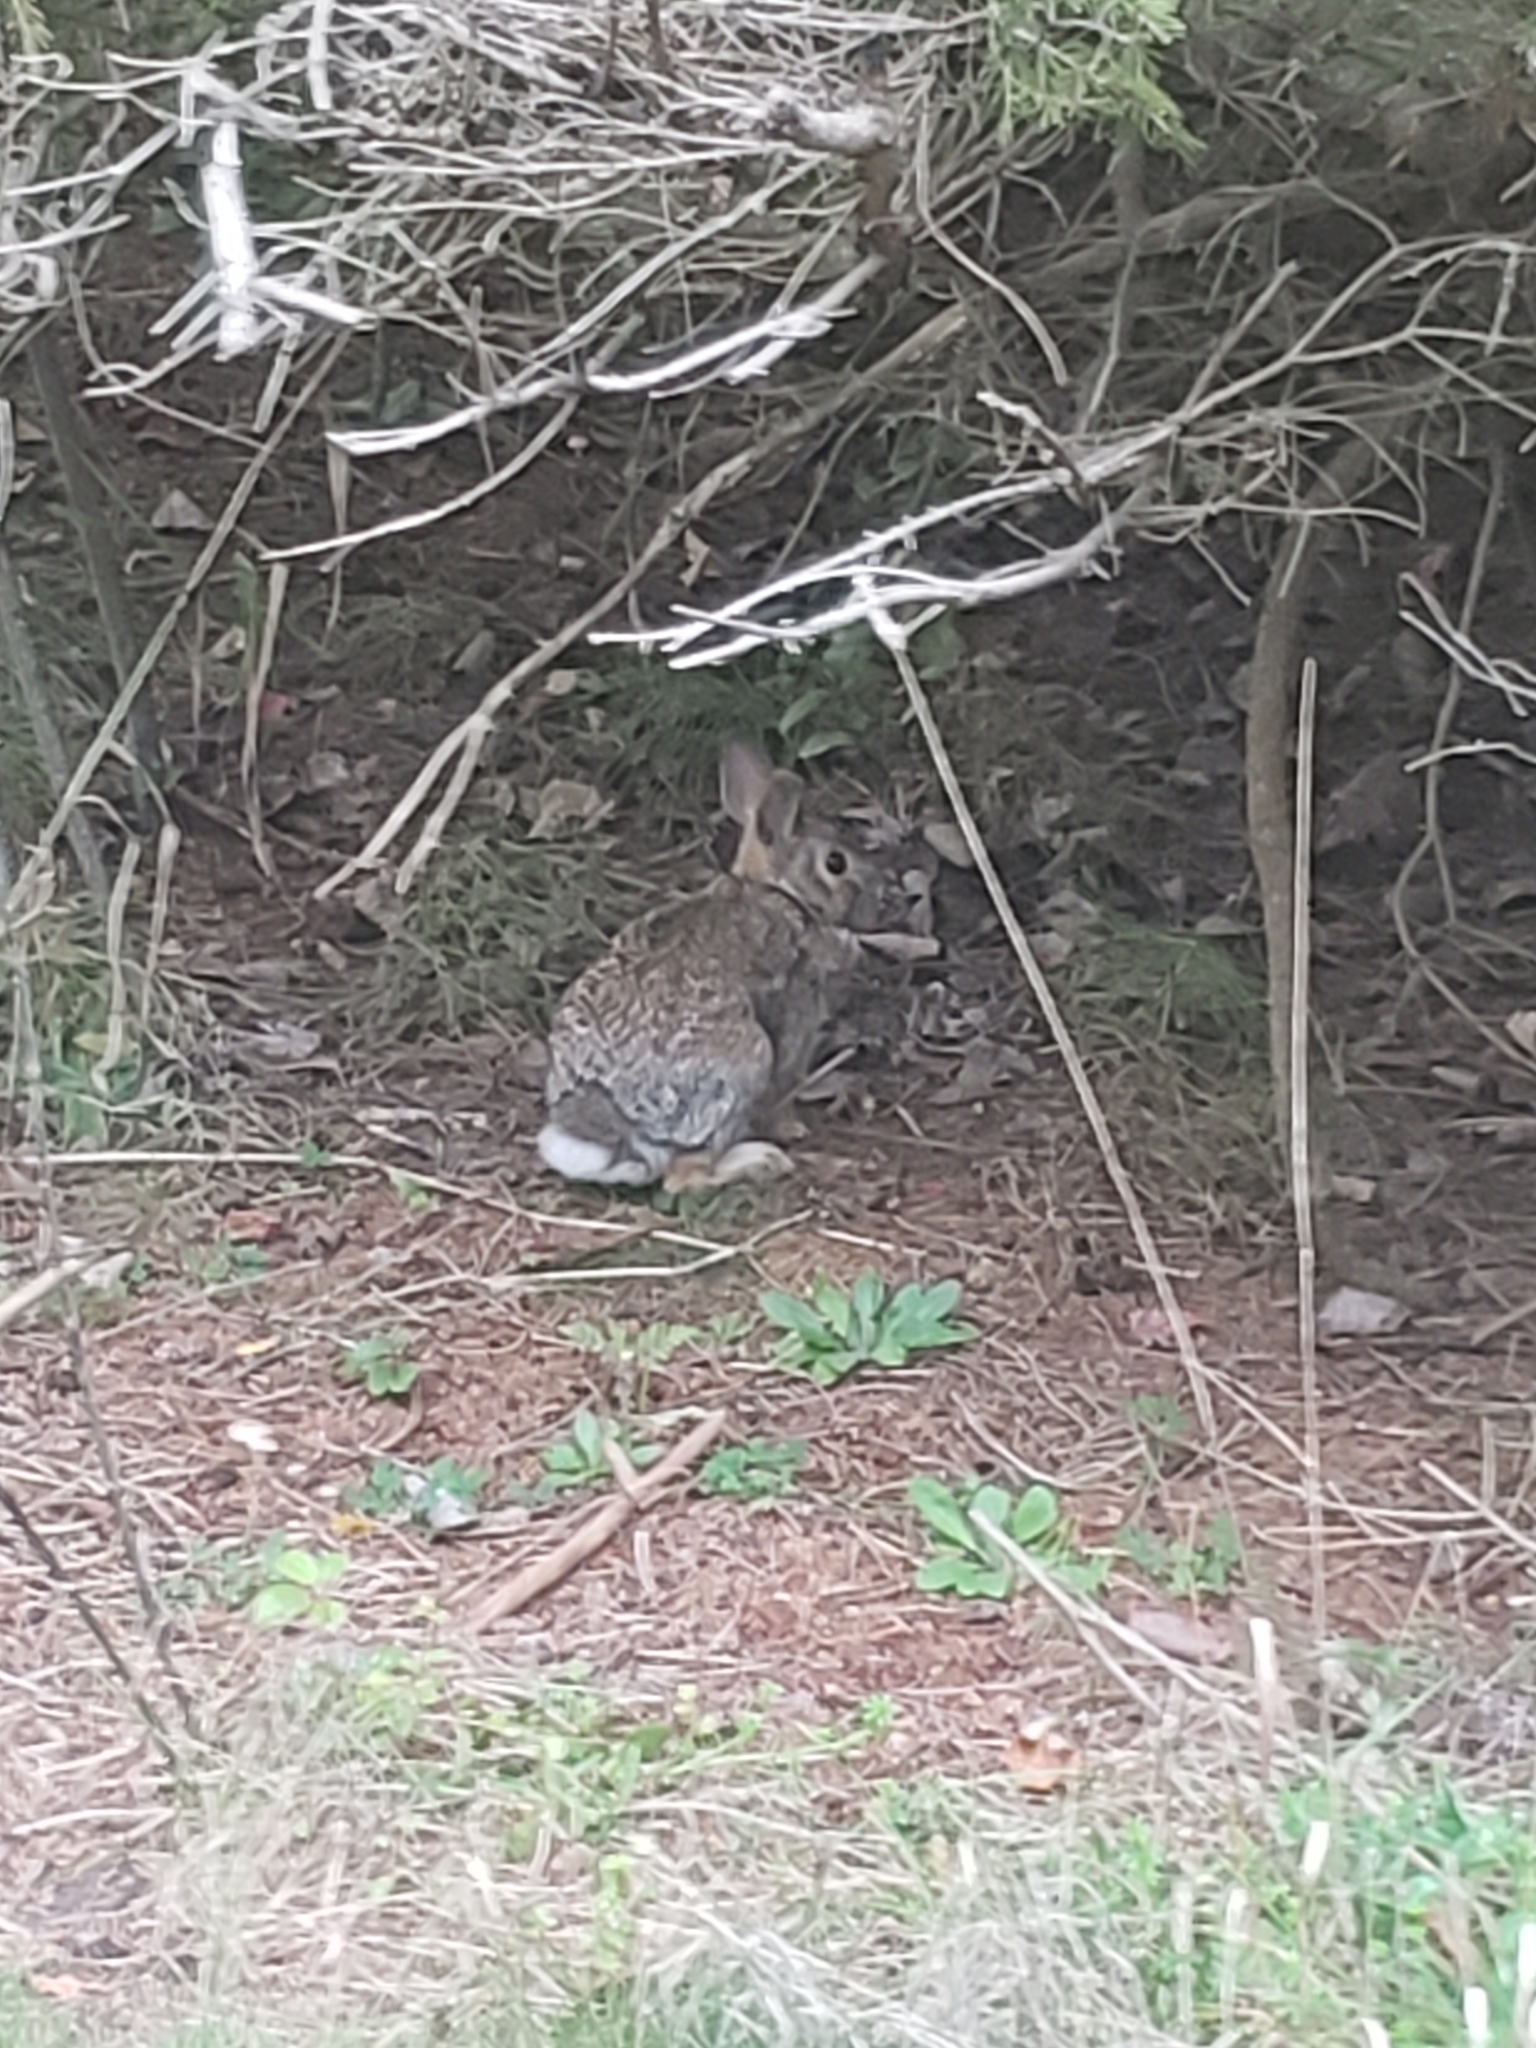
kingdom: Animalia
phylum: Chordata
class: Mammalia
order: Lagomorpha
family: Leporidae
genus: Sylvilagus
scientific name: Sylvilagus floridanus
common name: Eastern cottontail
